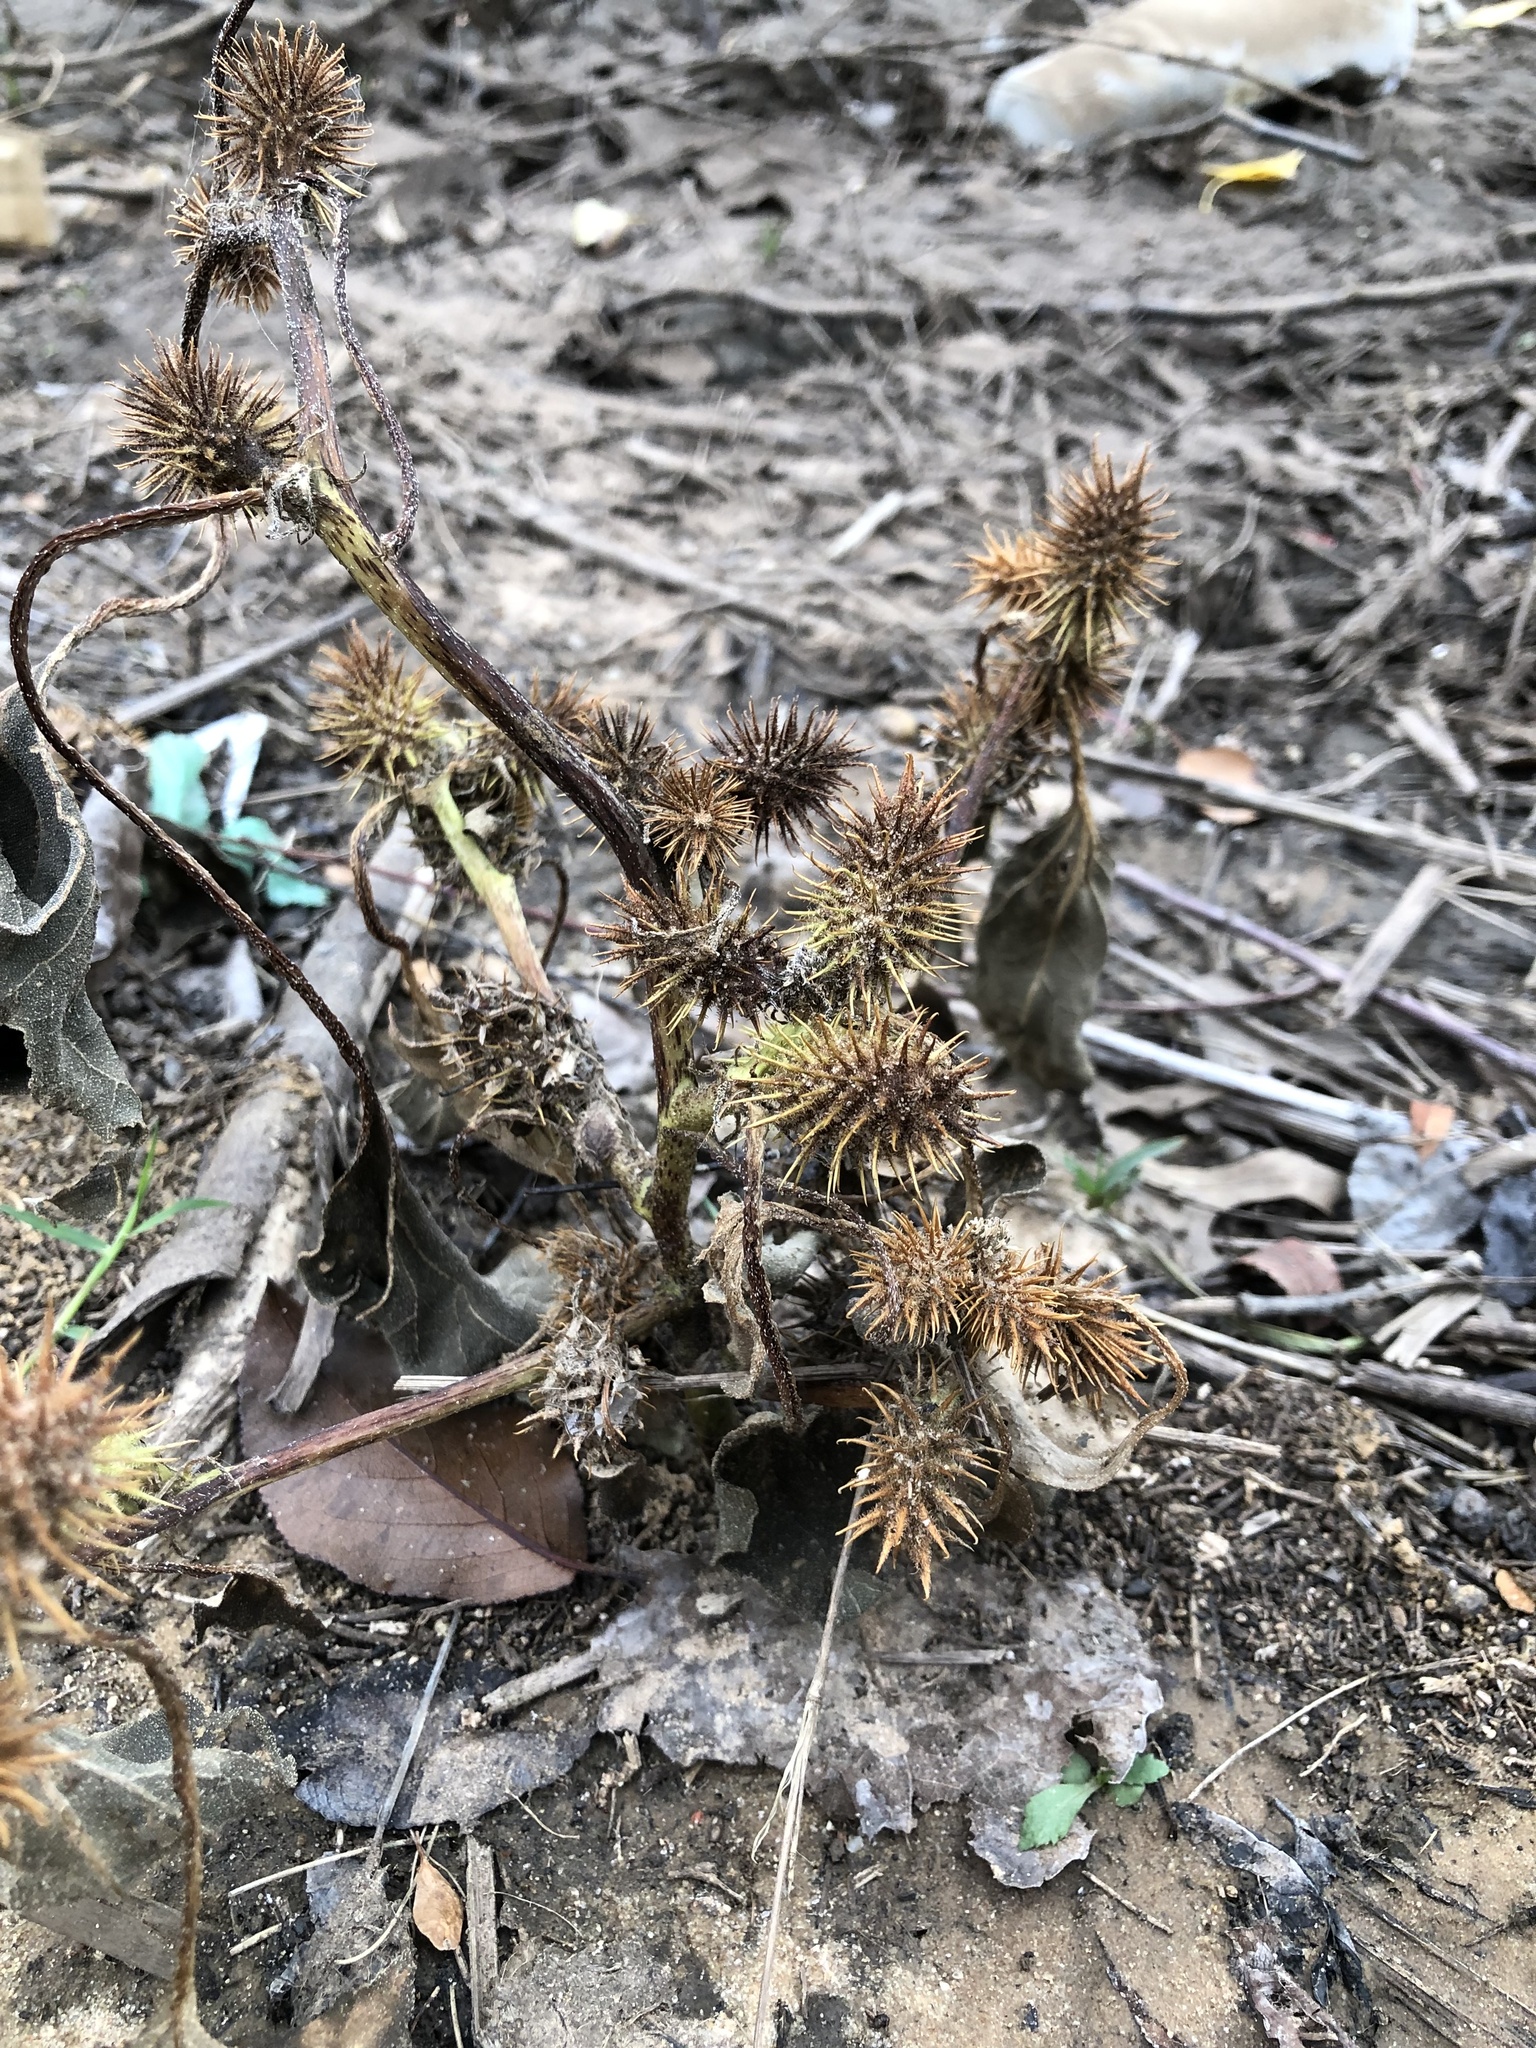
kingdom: Plantae
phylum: Tracheophyta
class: Magnoliopsida
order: Asterales
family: Asteraceae
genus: Xanthium
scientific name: Xanthium strumarium
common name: Rough cocklebur
